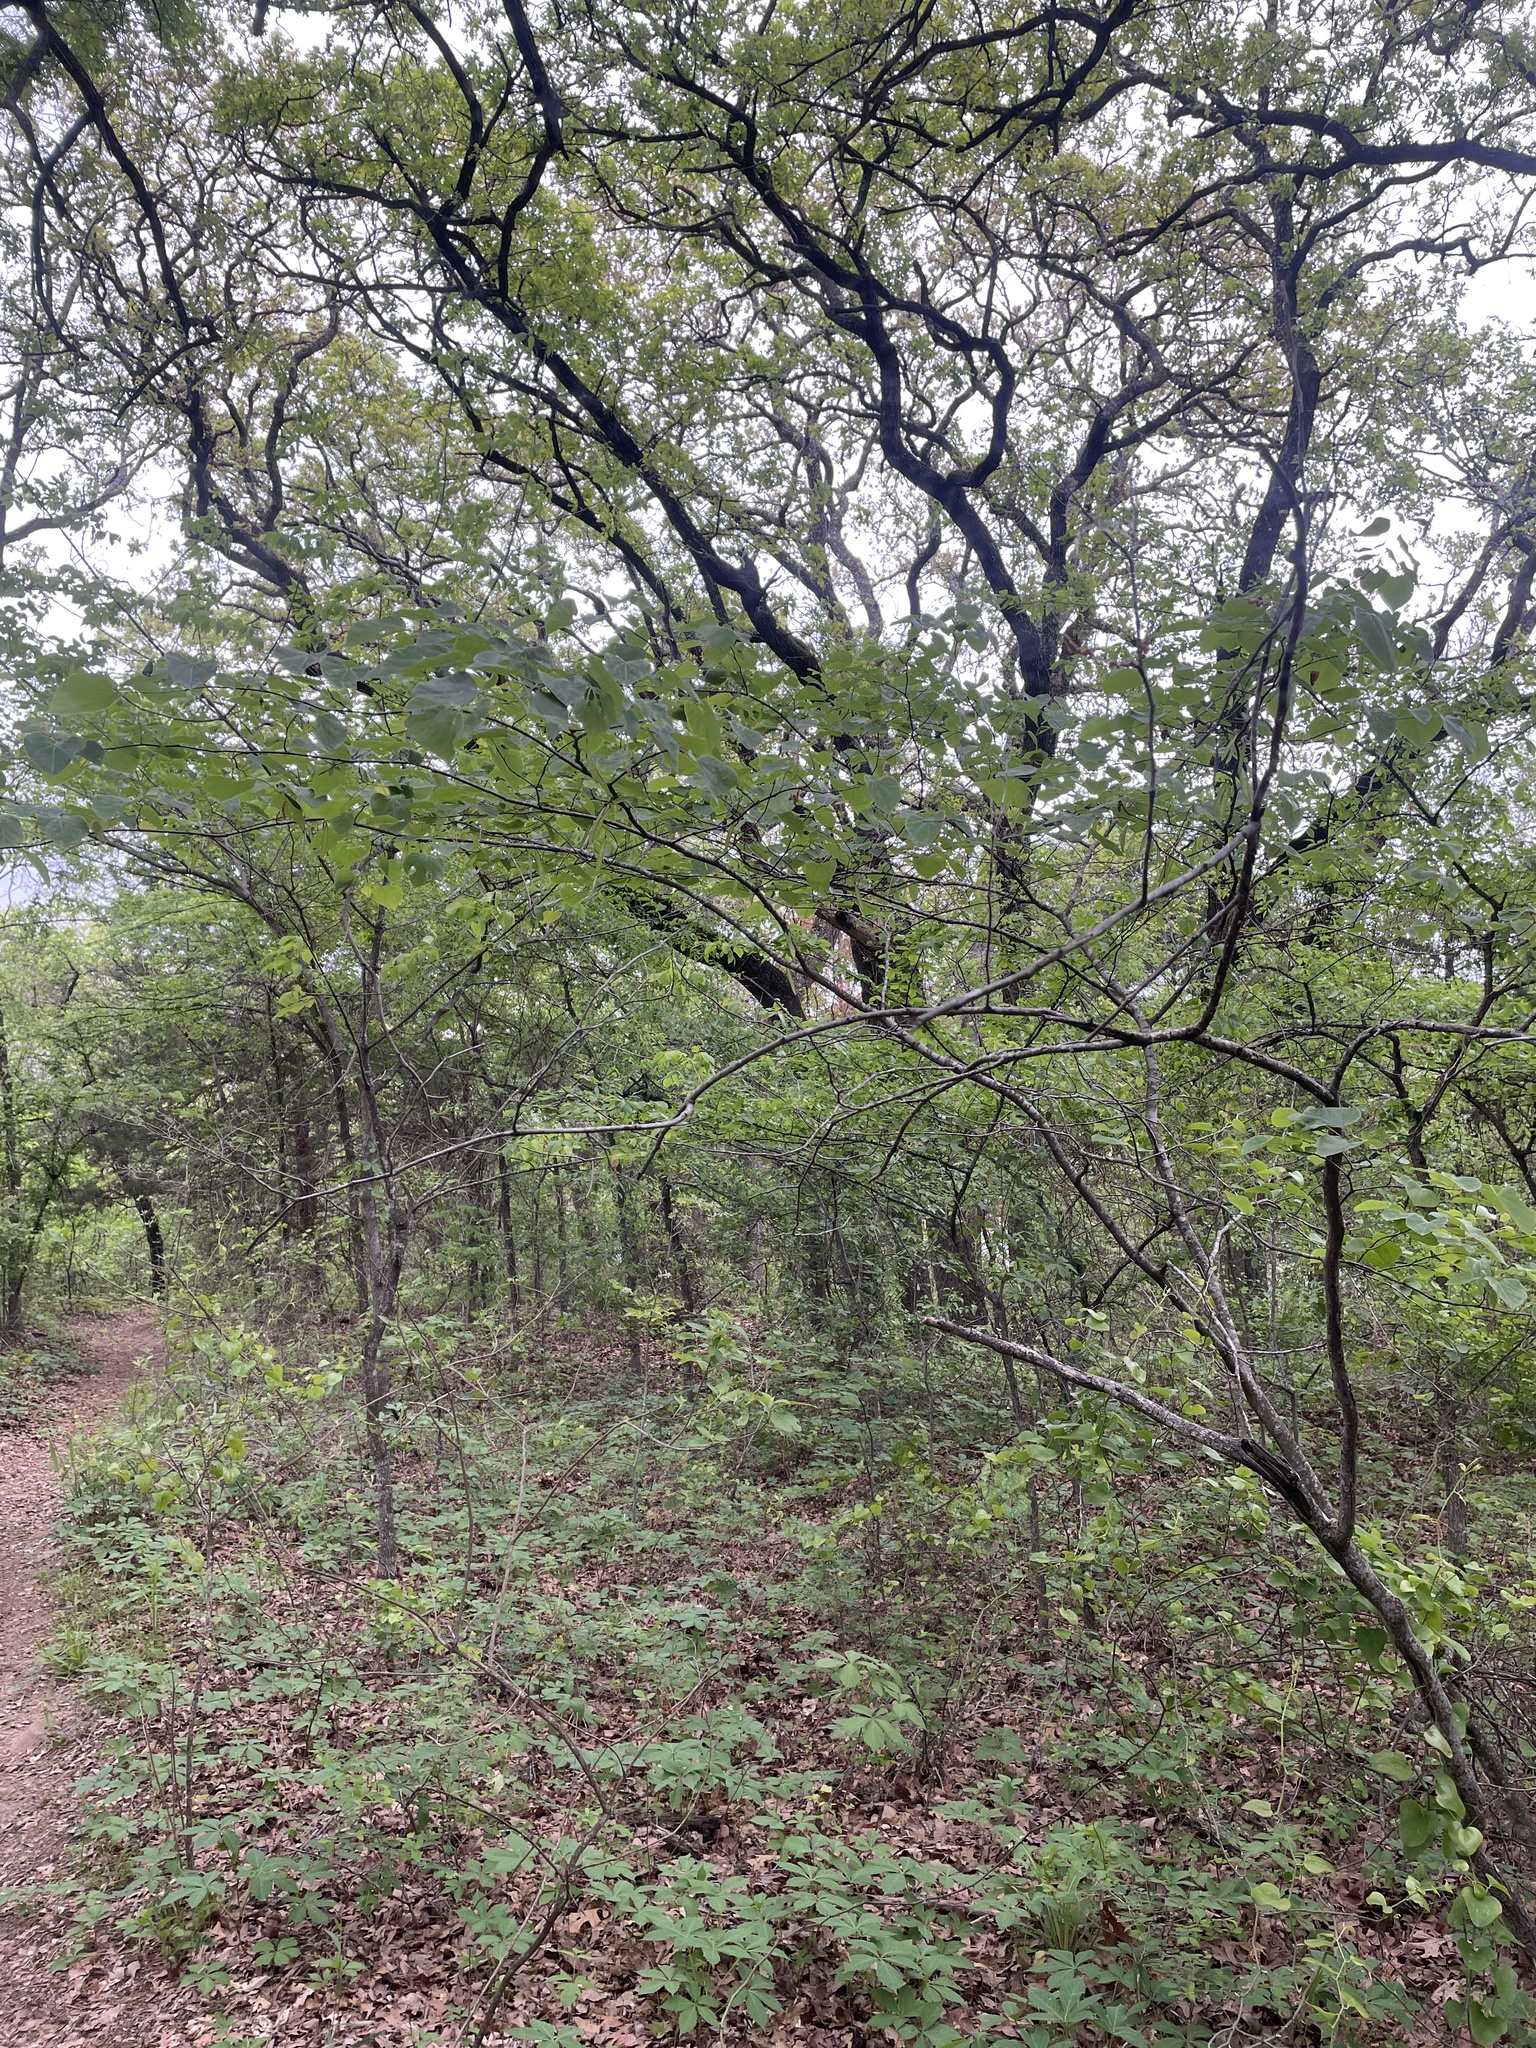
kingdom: Plantae
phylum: Tracheophyta
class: Magnoliopsida
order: Fabales
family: Fabaceae
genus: Cercis
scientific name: Cercis canadensis
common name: Eastern redbud
